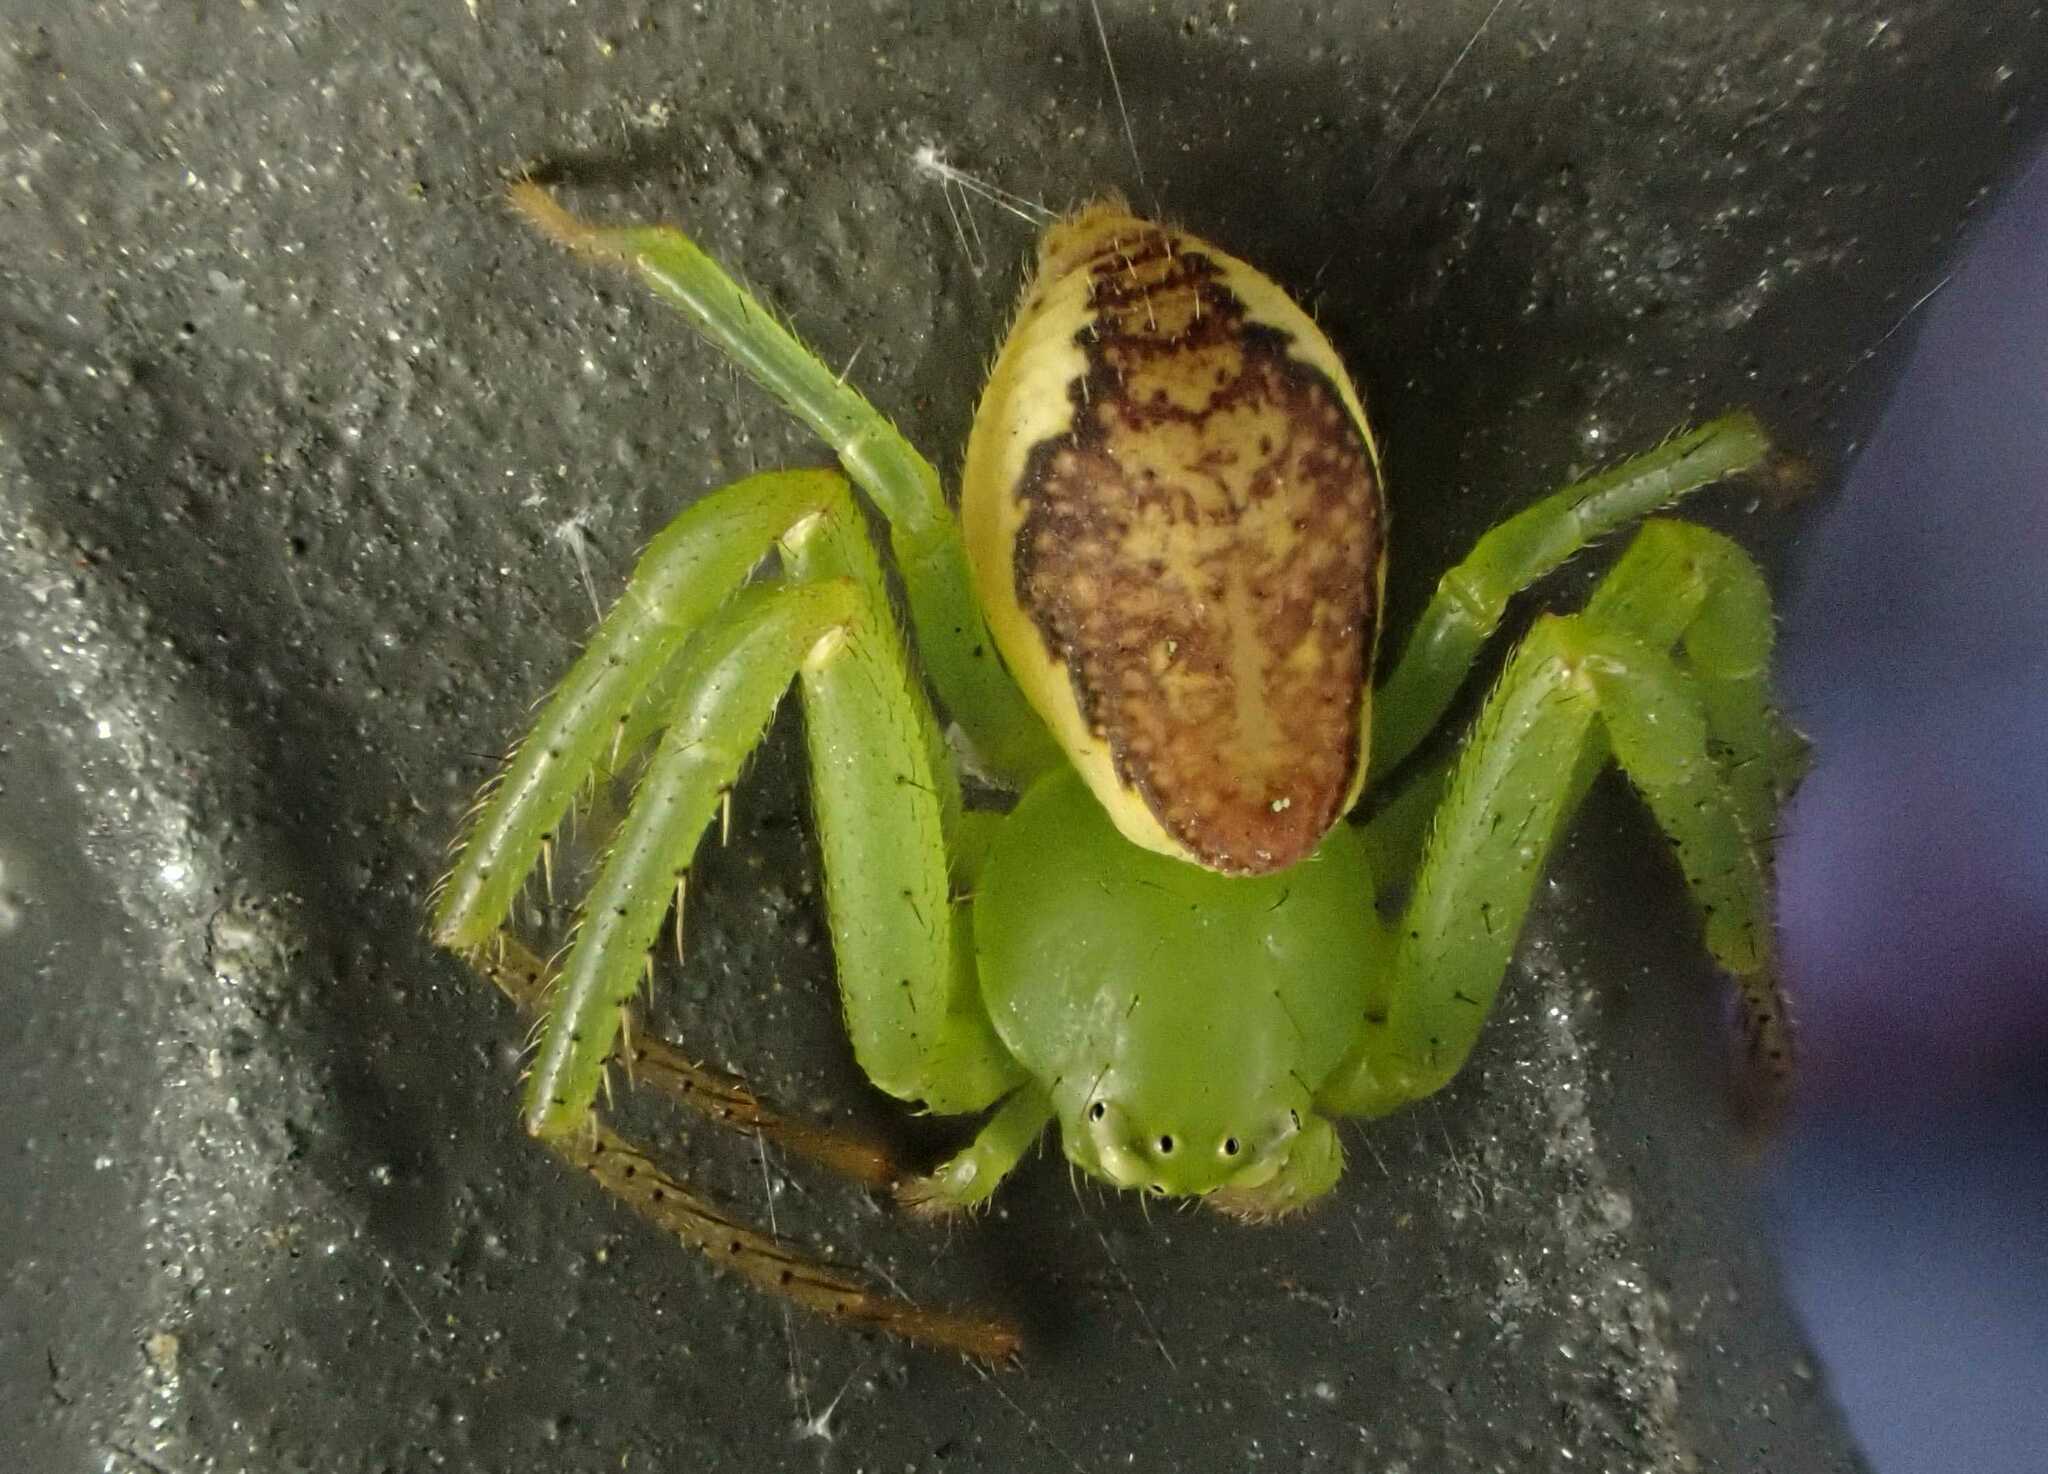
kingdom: Animalia
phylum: Arthropoda
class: Arachnida
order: Araneae
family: Thomisidae
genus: Diaea
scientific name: Diaea dorsata
